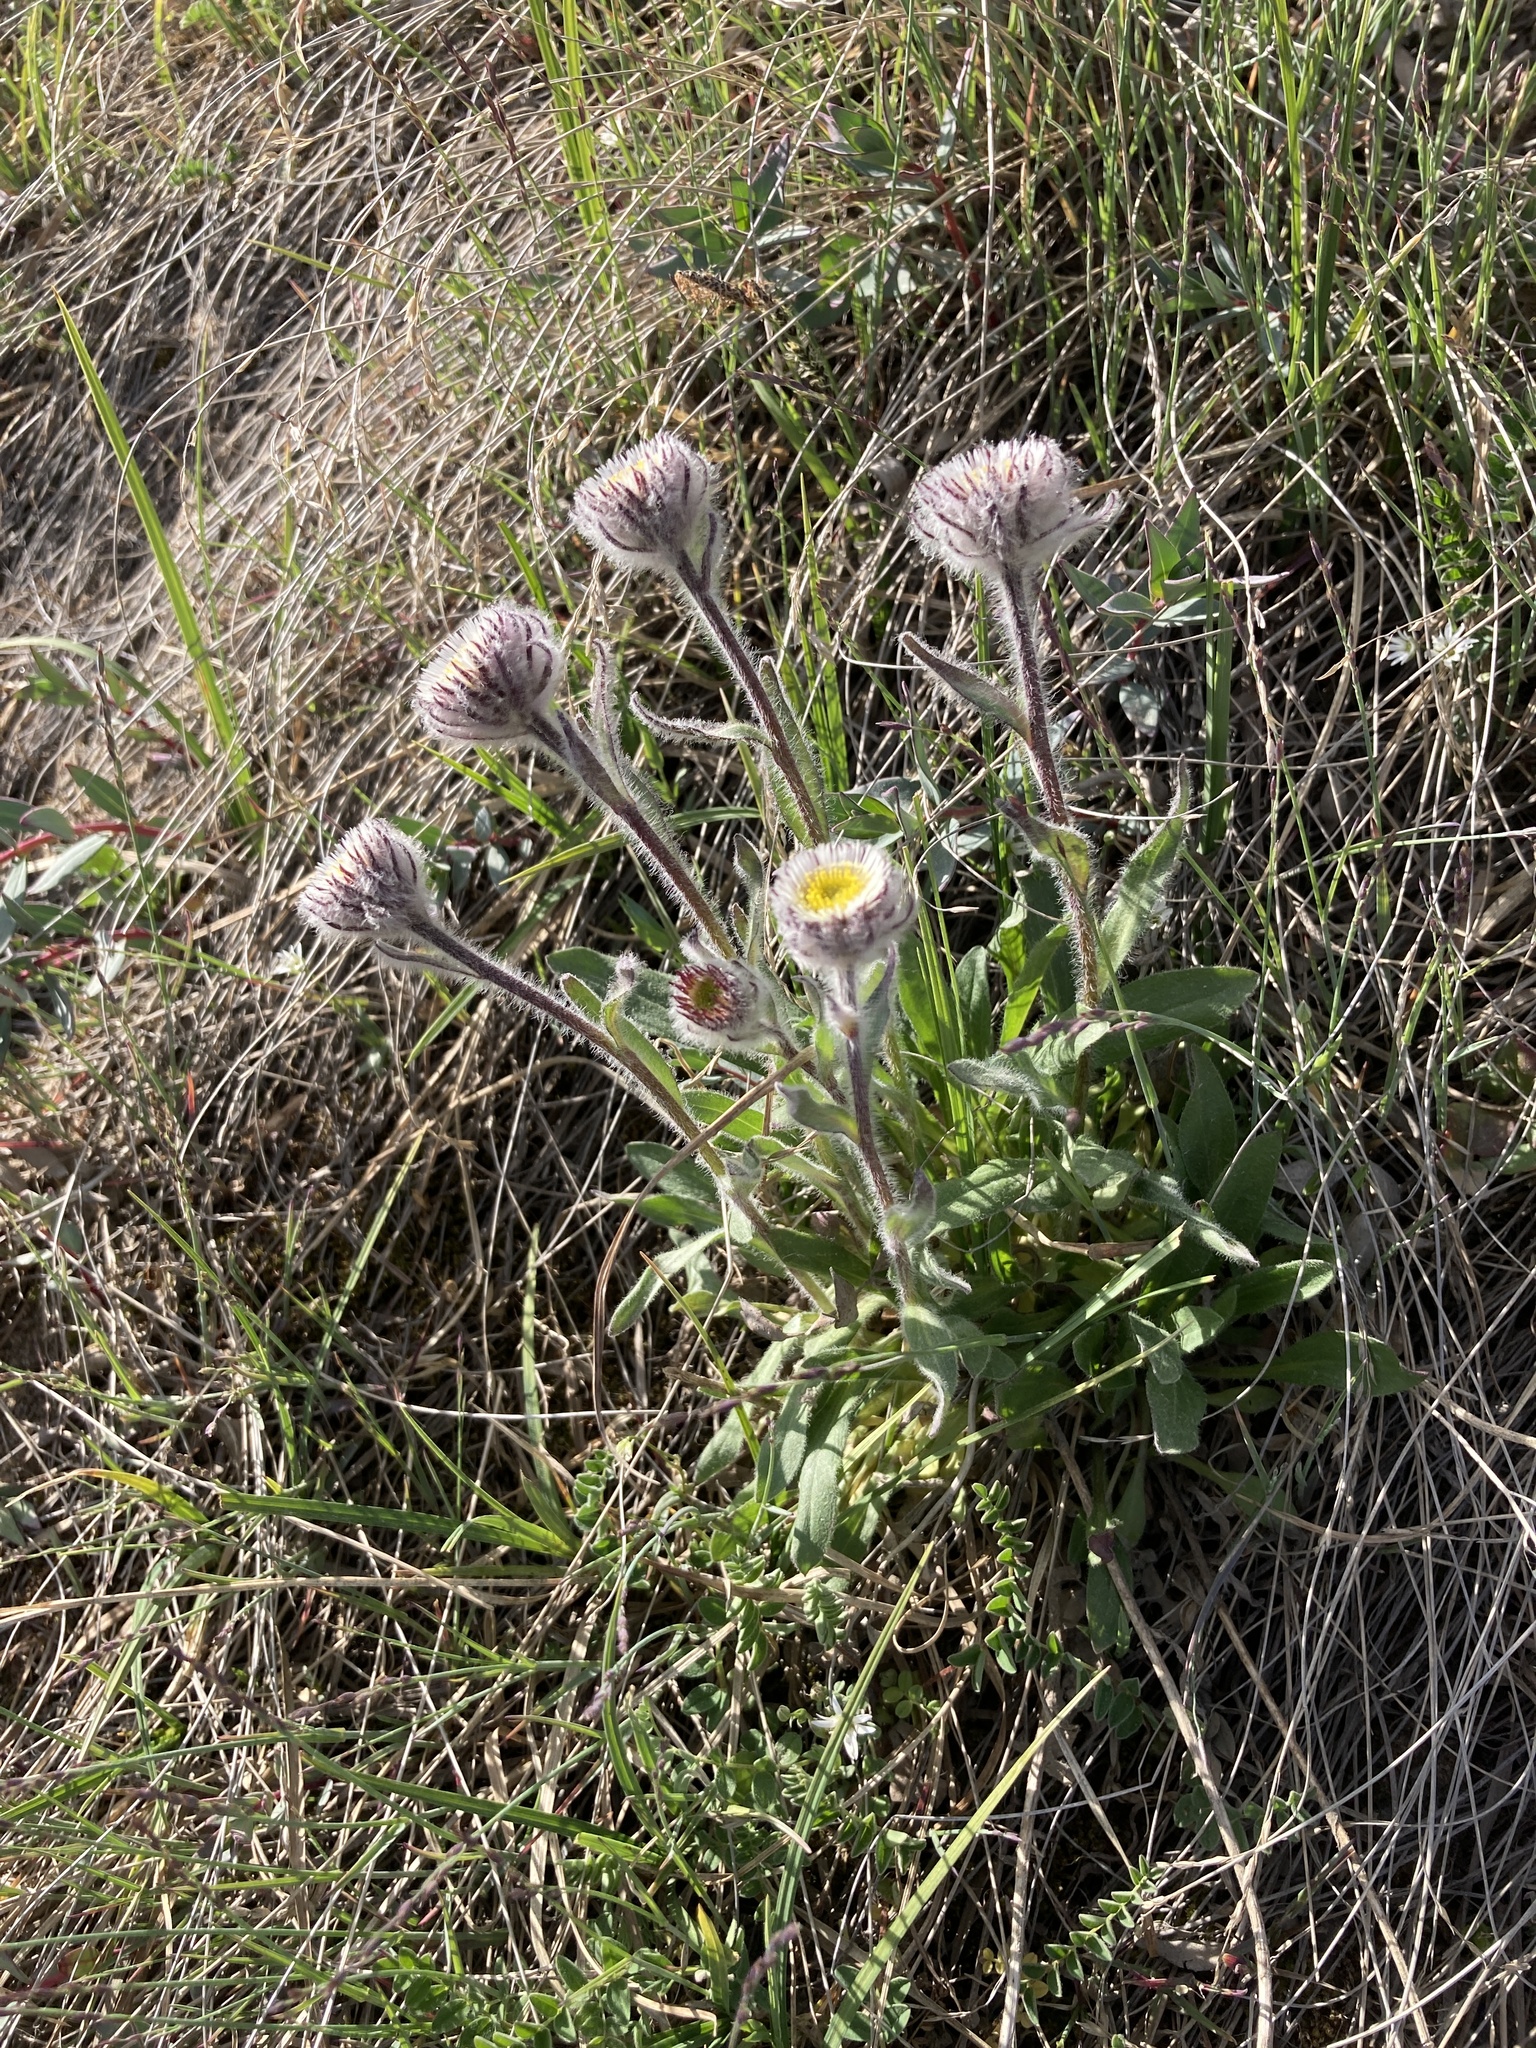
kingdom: Plantae
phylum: Tracheophyta
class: Magnoliopsida
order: Asterales
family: Asteraceae
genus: Erigeron
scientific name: Erigeron uniflorus
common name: Northern daisy
